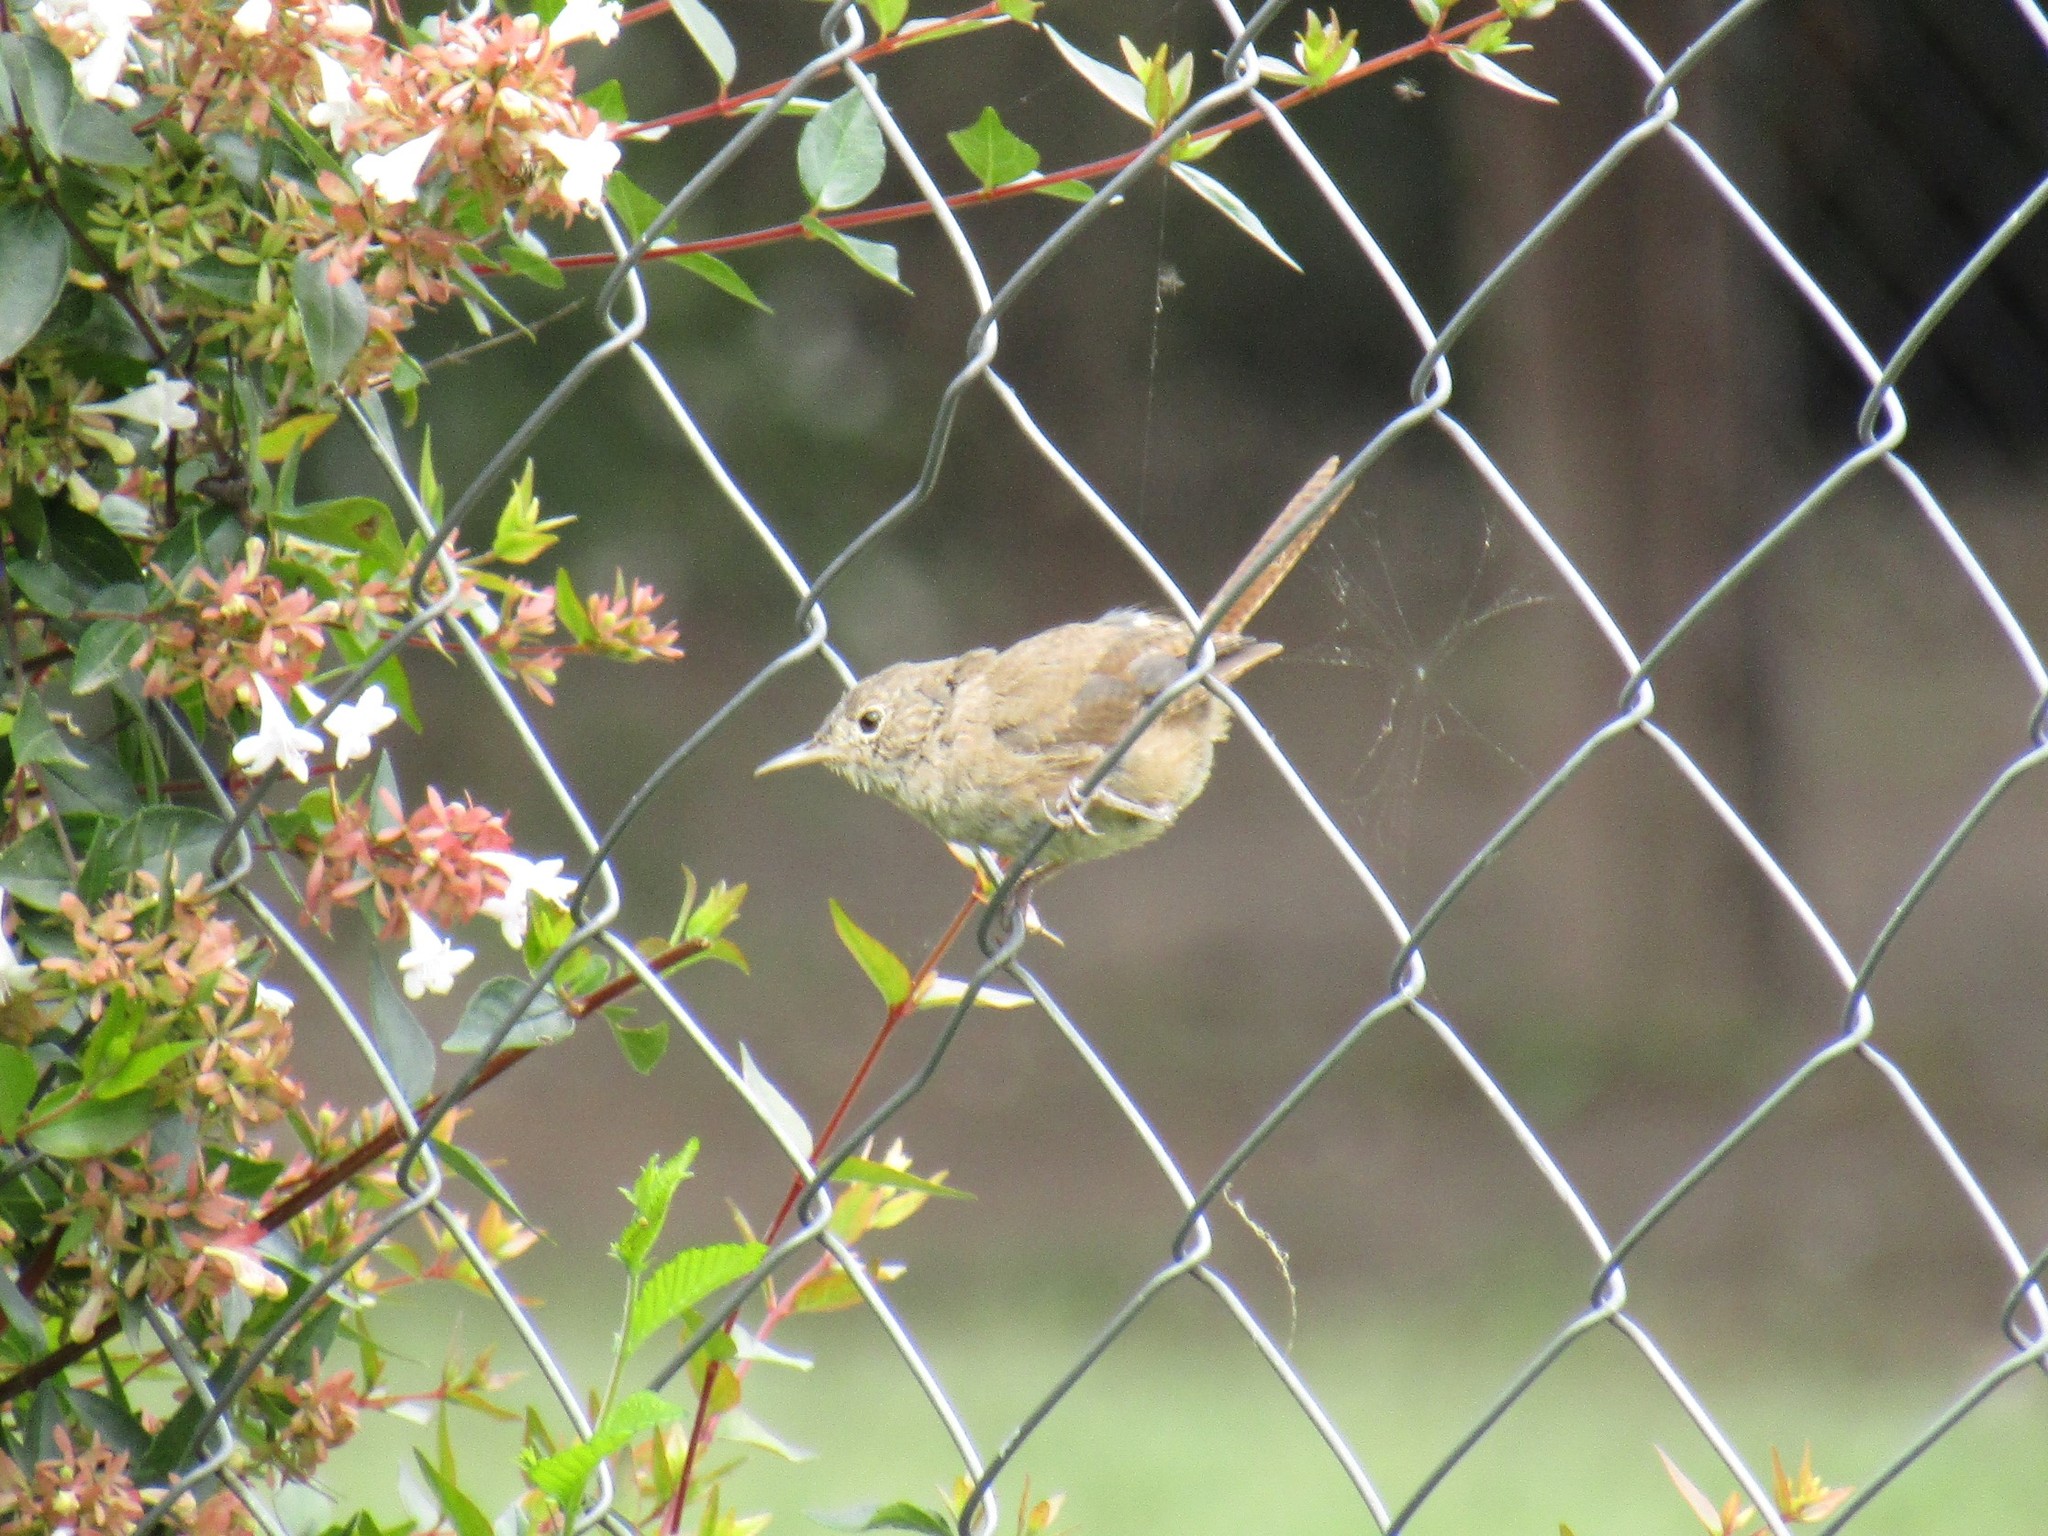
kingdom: Animalia
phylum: Chordata
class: Aves
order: Passeriformes
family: Troglodytidae
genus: Troglodytes
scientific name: Troglodytes aedon
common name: House wren
